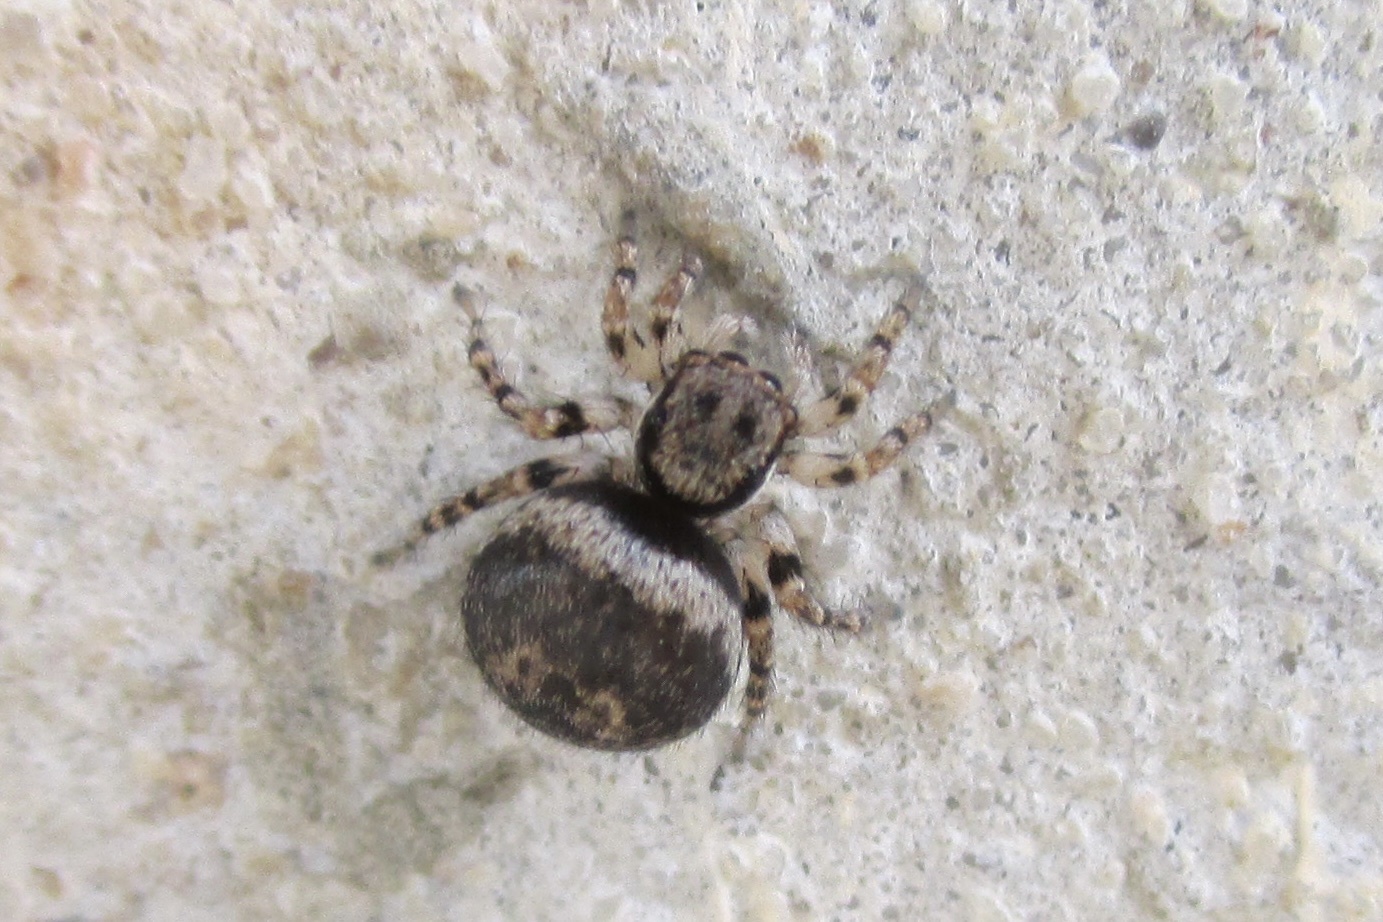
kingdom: Animalia
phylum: Arthropoda
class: Arachnida
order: Araneae
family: Salticidae
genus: Naphrys
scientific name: Naphrys acerba
